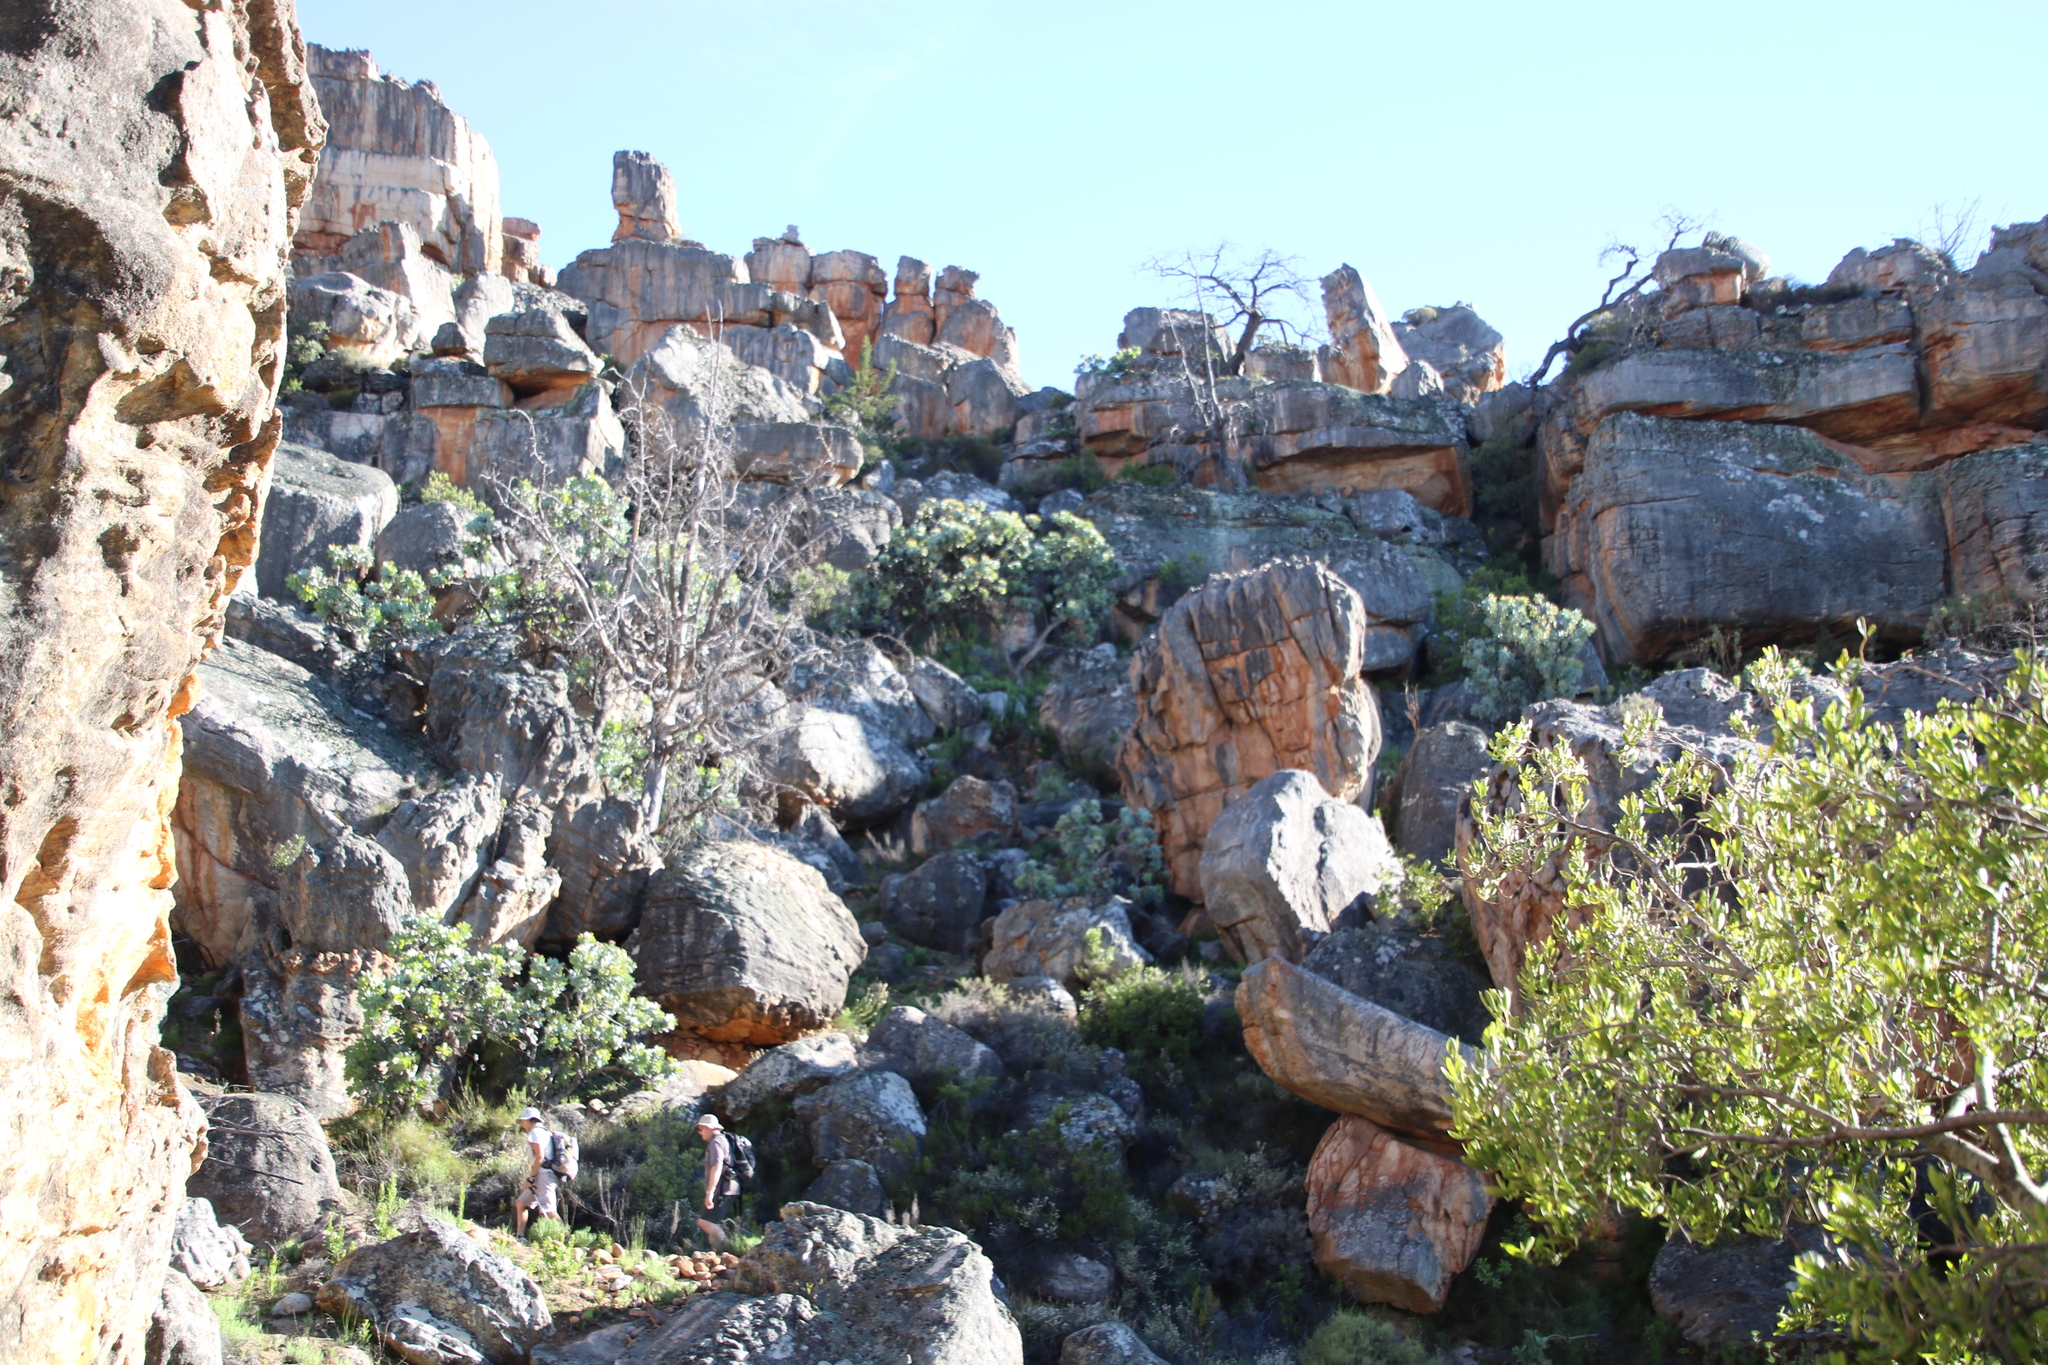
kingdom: Plantae
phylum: Tracheophyta
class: Magnoliopsida
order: Proteales
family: Proteaceae
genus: Protea
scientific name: Protea nitida
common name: Tree protea
